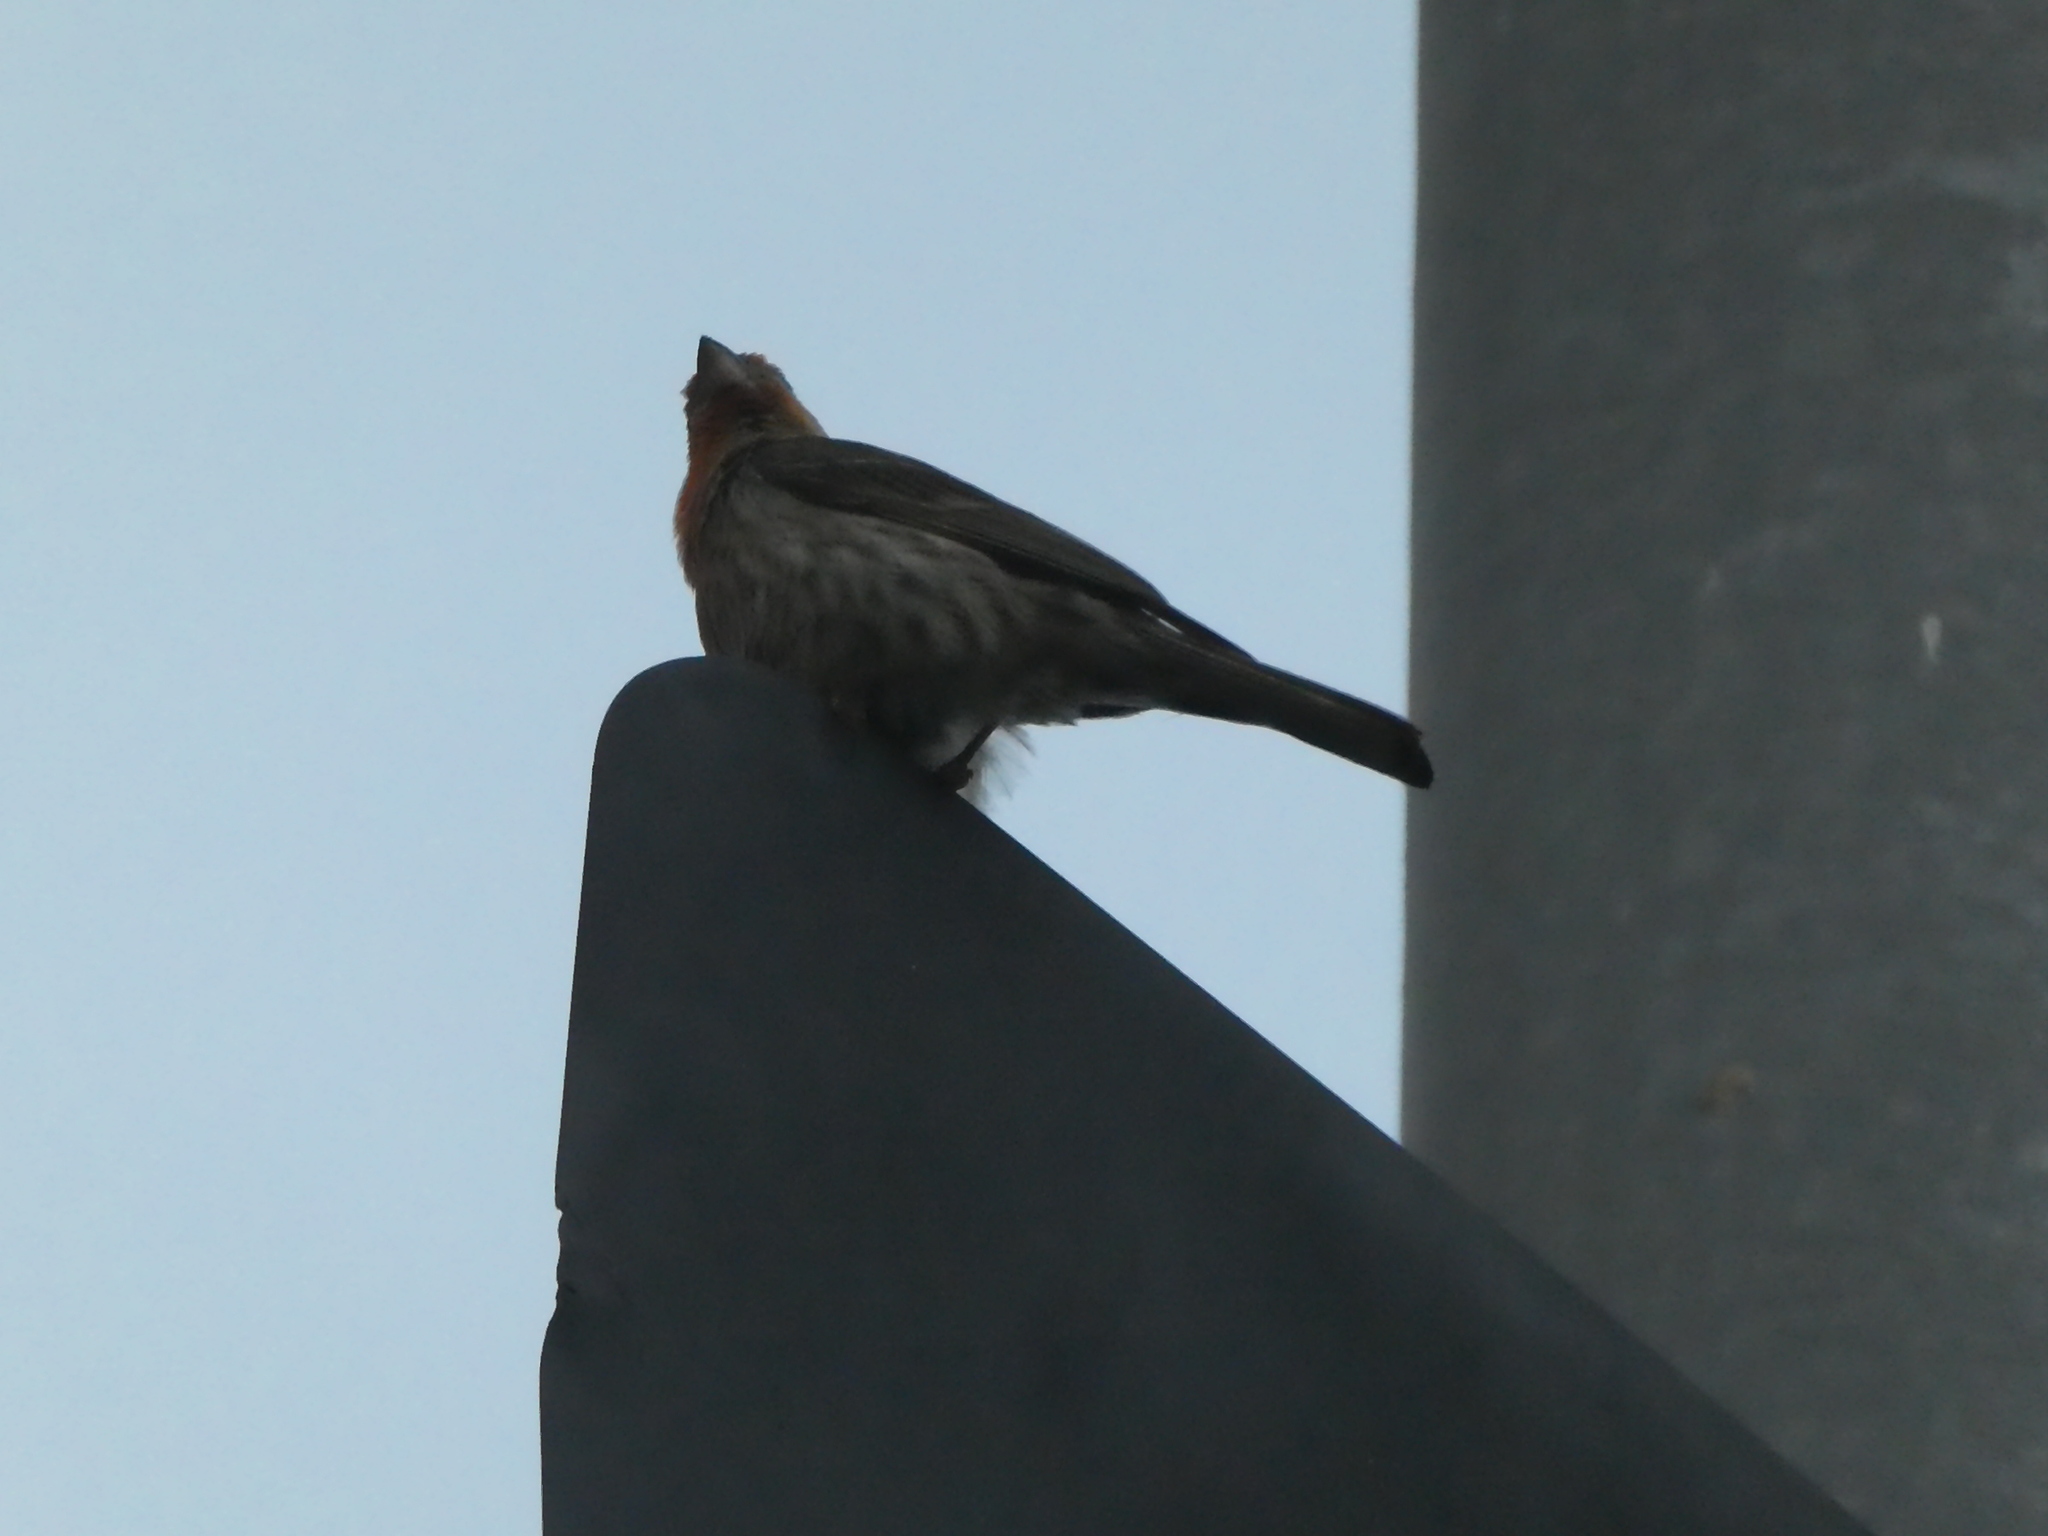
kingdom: Animalia
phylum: Chordata
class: Aves
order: Passeriformes
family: Fringillidae
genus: Haemorhous
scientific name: Haemorhous mexicanus
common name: House finch
